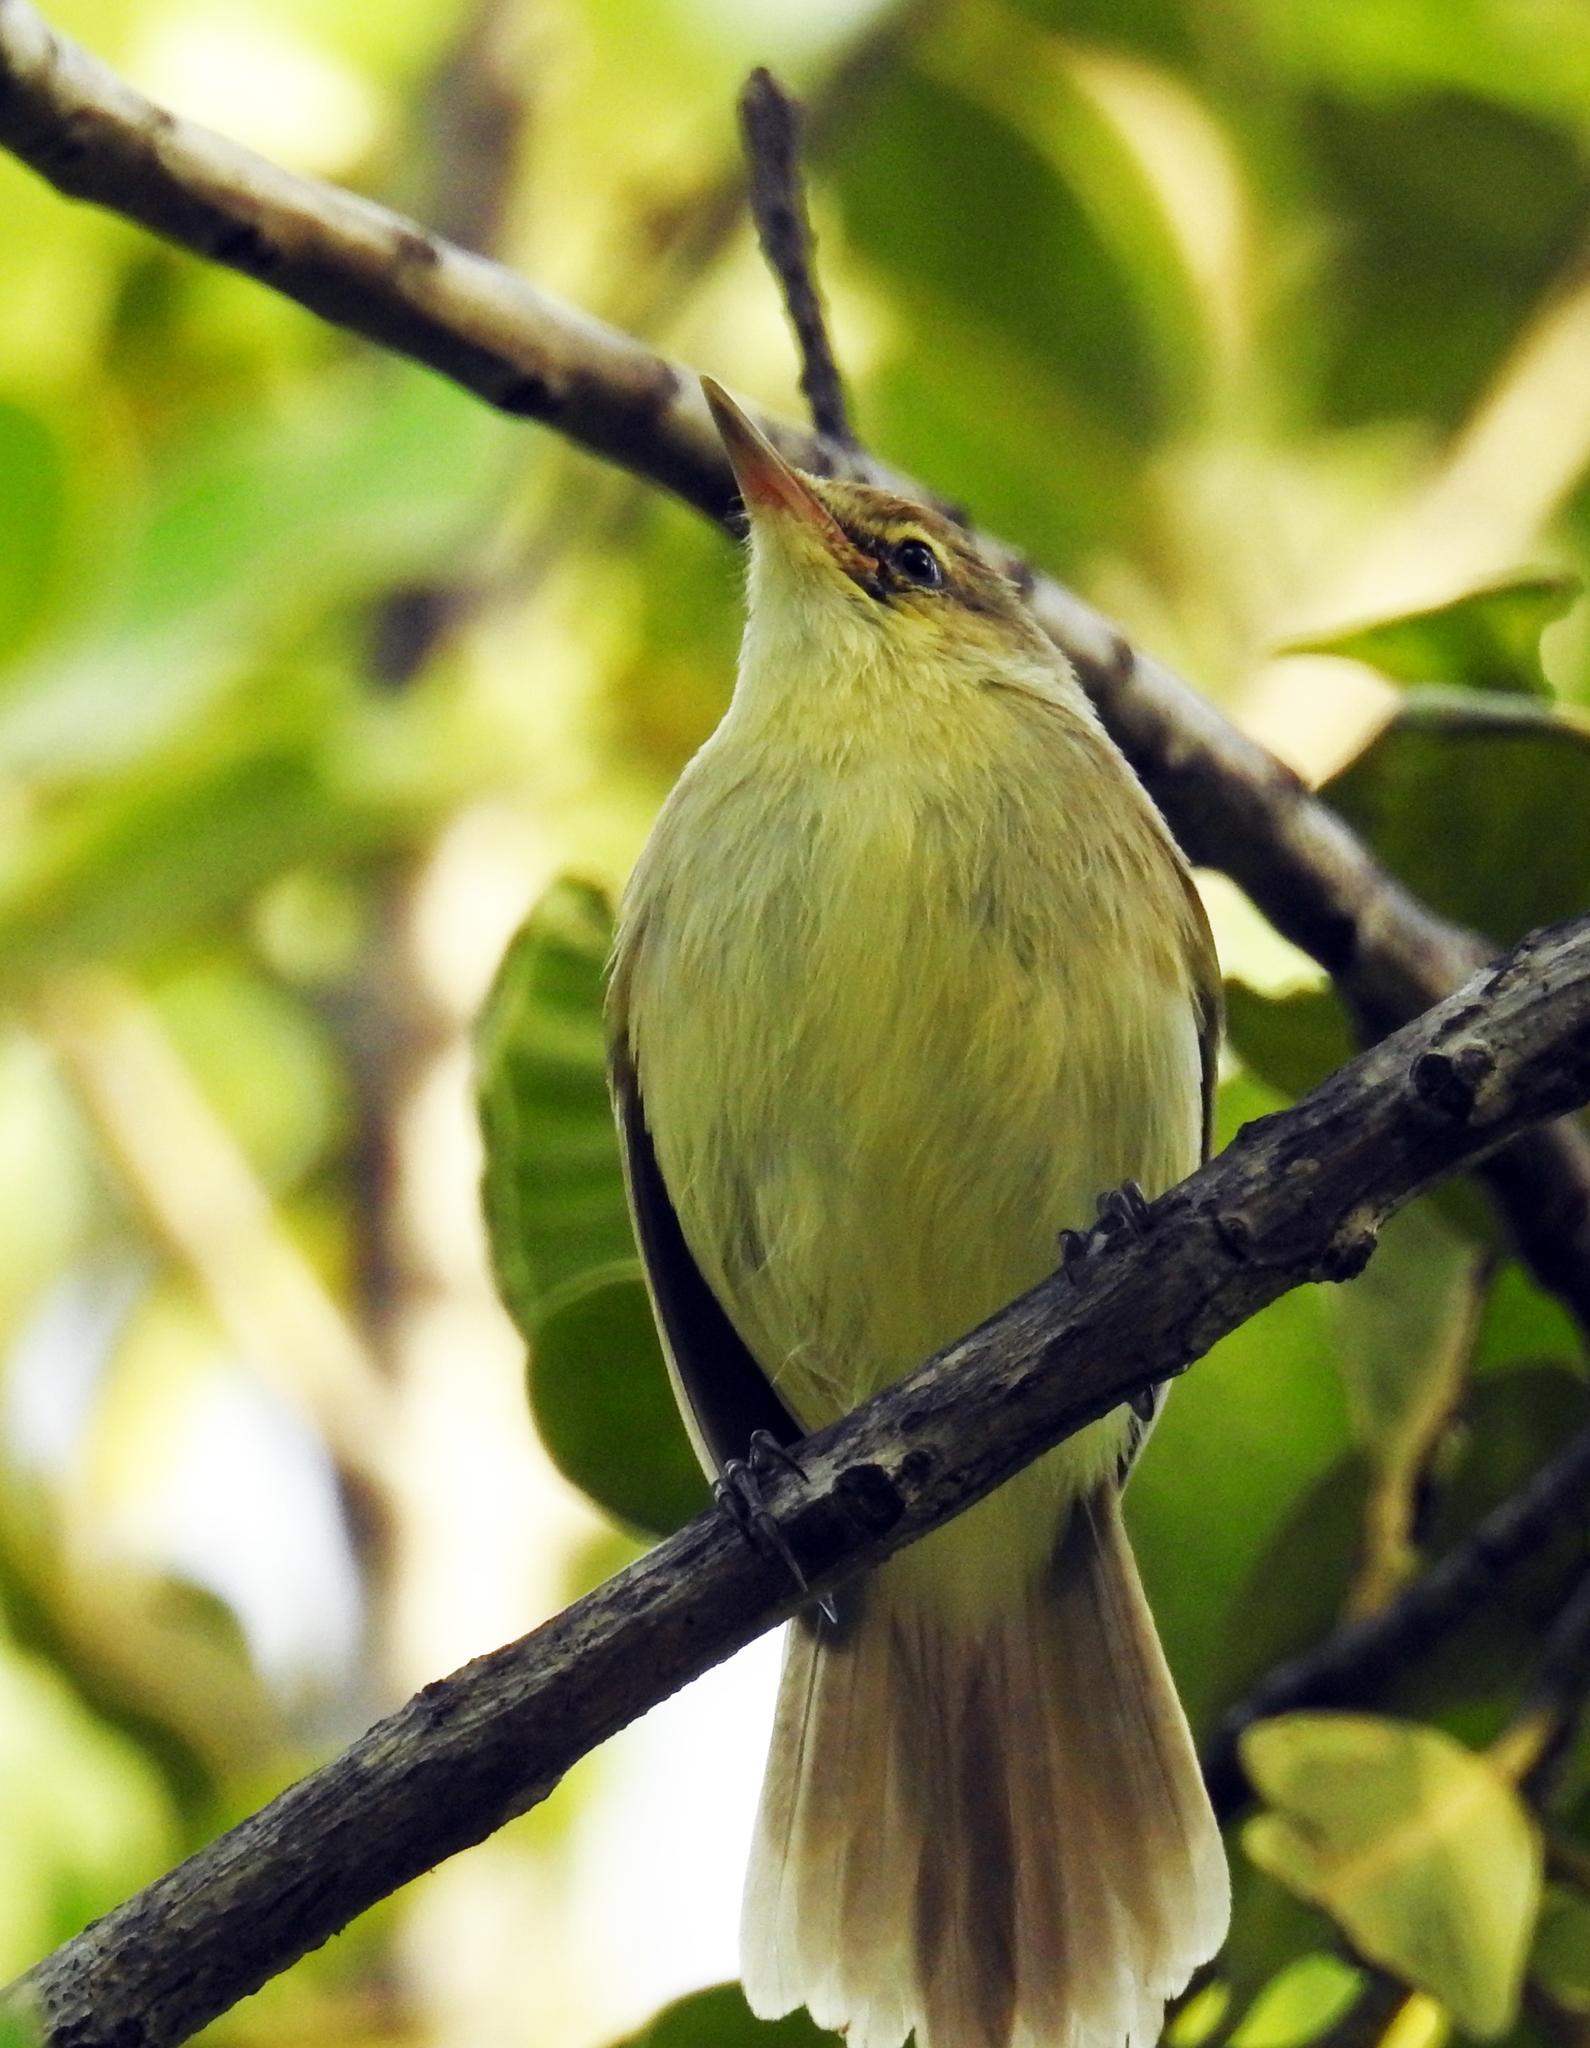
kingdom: Animalia
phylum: Chordata
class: Aves
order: Passeriformes
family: Acrocephalidae
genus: Acrocephalus
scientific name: Acrocephalus kerearako
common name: Cook reed warbler
